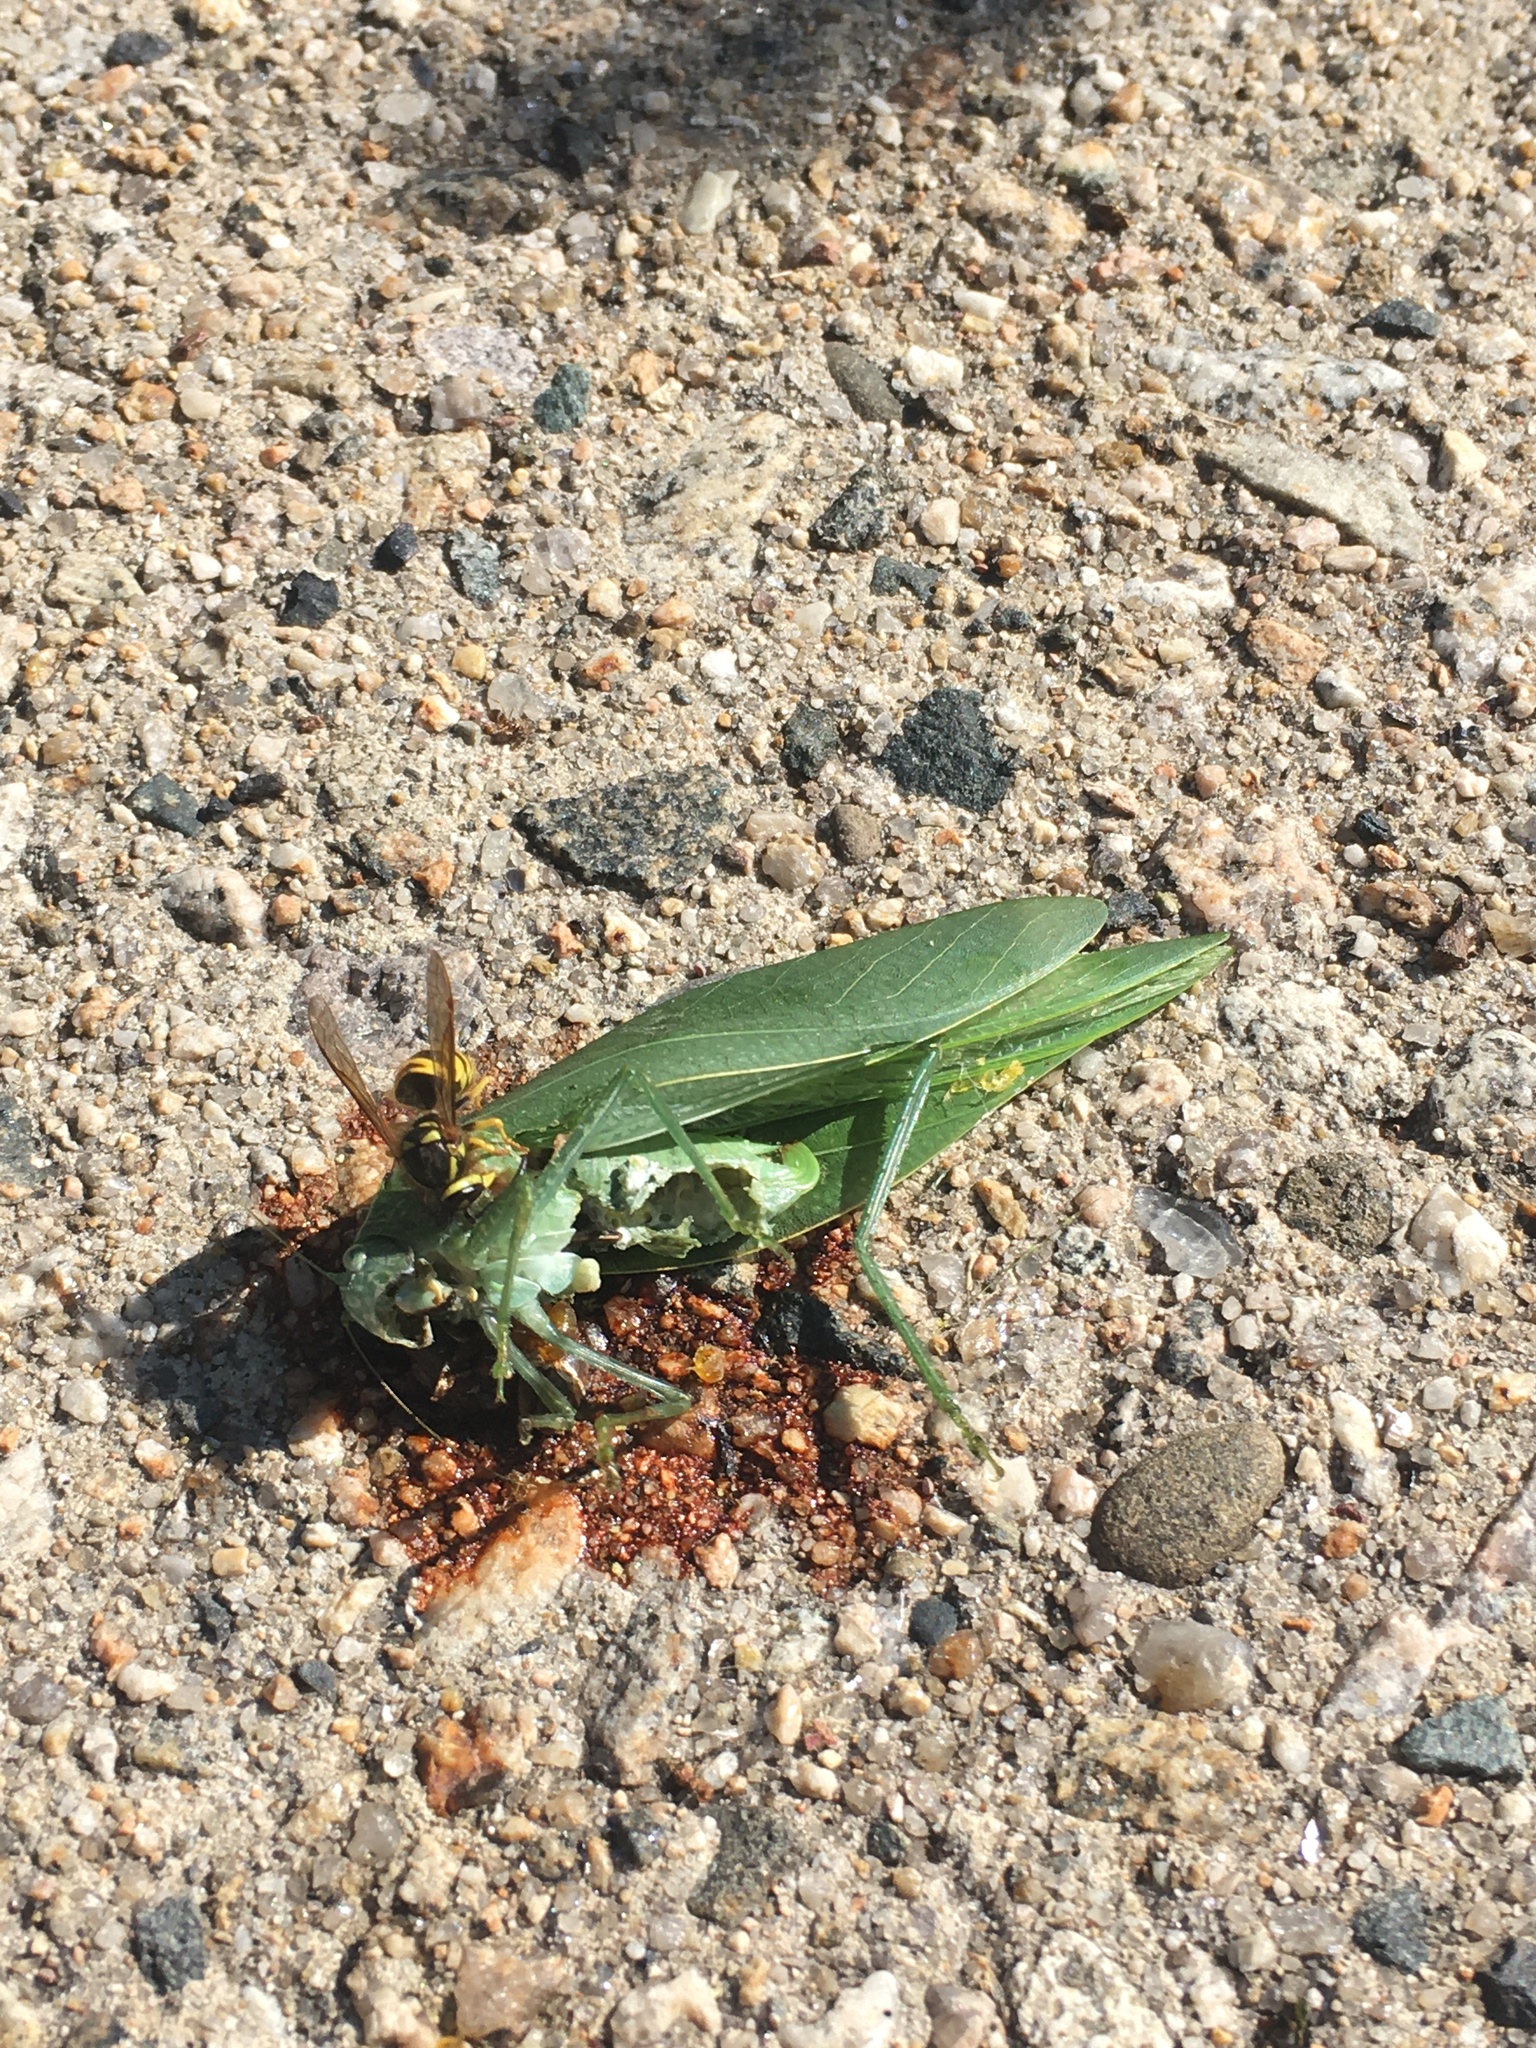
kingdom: Animalia
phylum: Arthropoda
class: Insecta
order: Orthoptera
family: Tettigoniidae
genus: Microcentrum
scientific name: Microcentrum rhombifolium
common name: Broad-winged katydid
